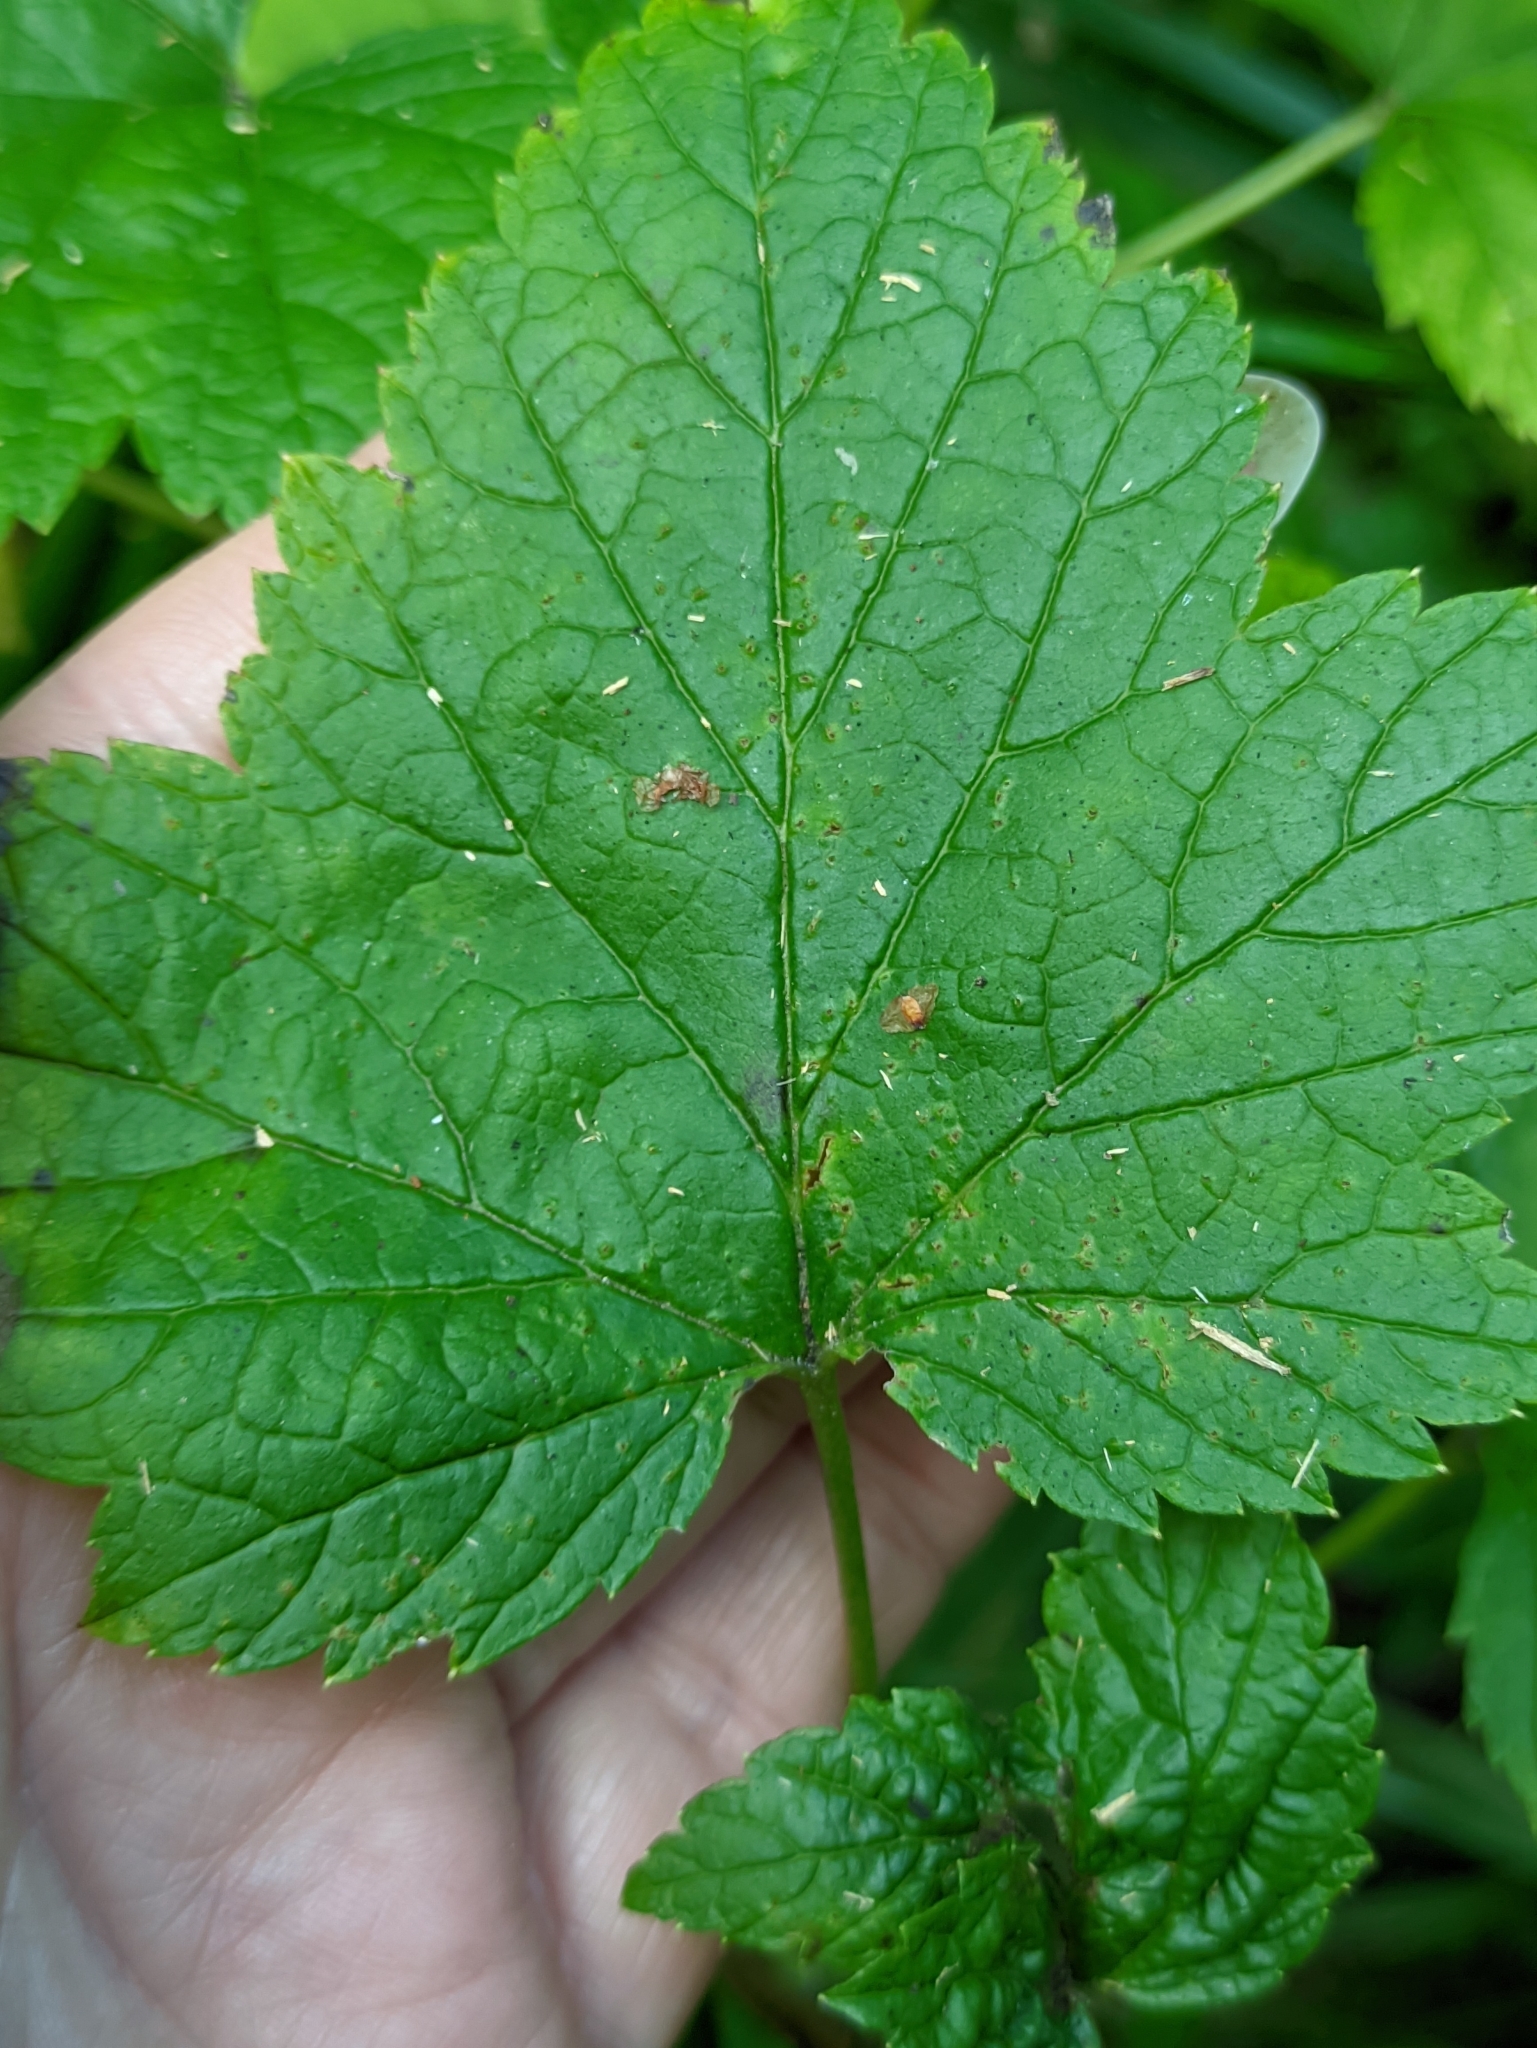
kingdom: Plantae
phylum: Tracheophyta
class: Magnoliopsida
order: Saxifragales
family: Grossulariaceae
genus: Ribes
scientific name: Ribes nigrum
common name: Black currant
